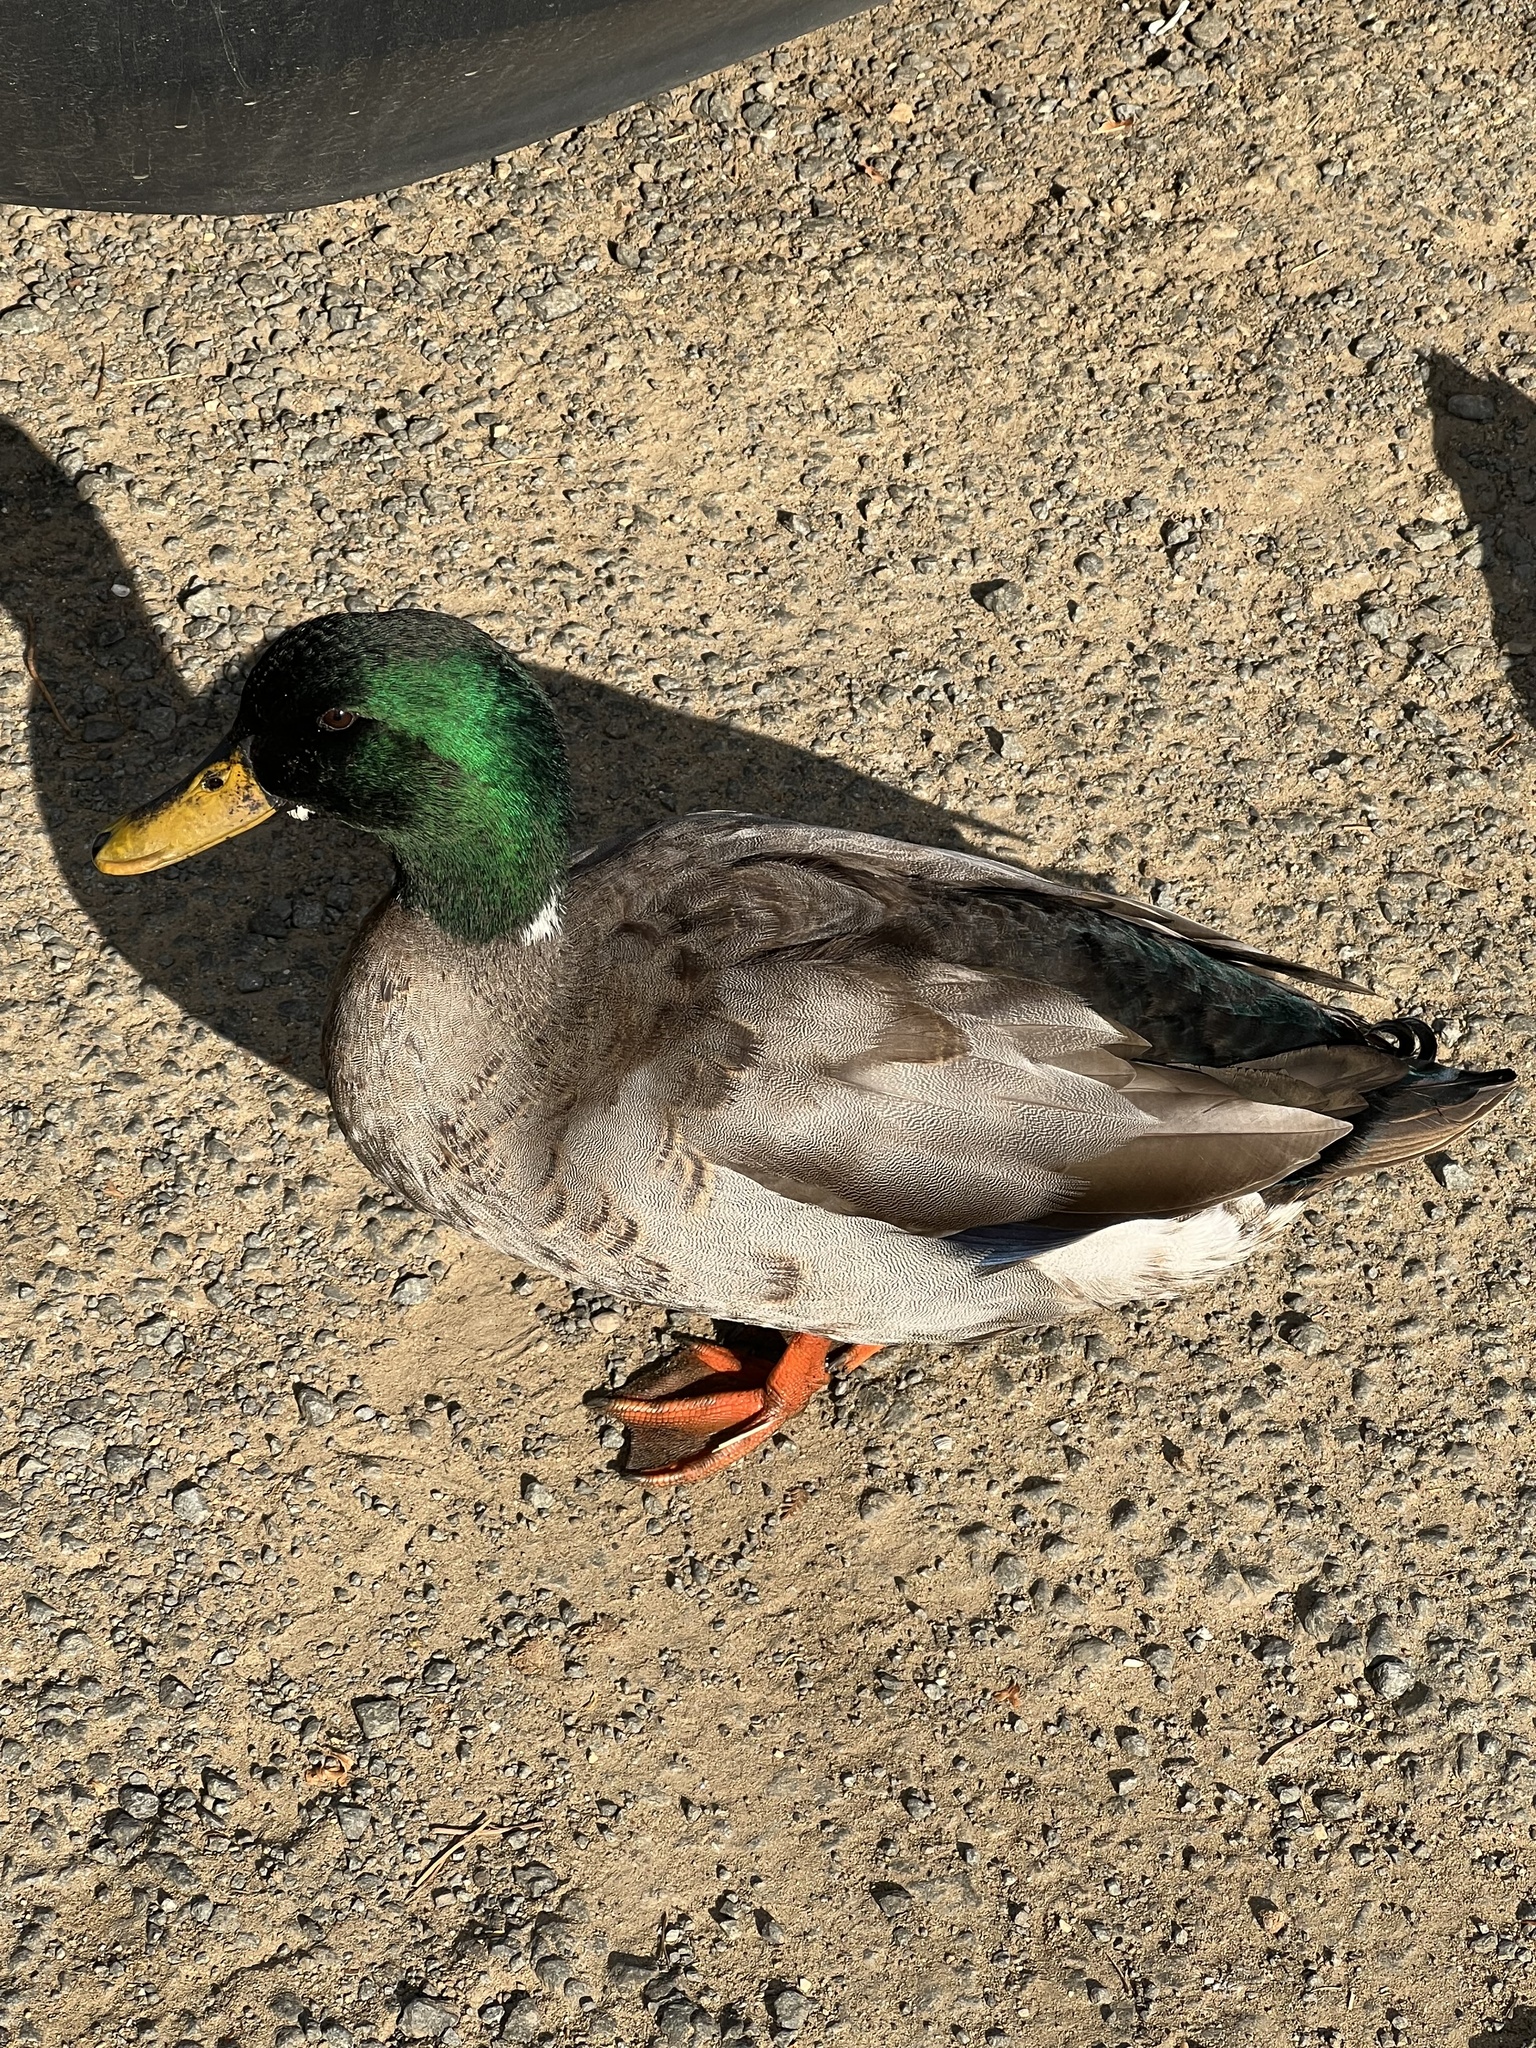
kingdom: Animalia
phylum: Chordata
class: Aves
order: Anseriformes
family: Anatidae
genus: Anas
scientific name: Anas platyrhynchos
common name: Mallard
